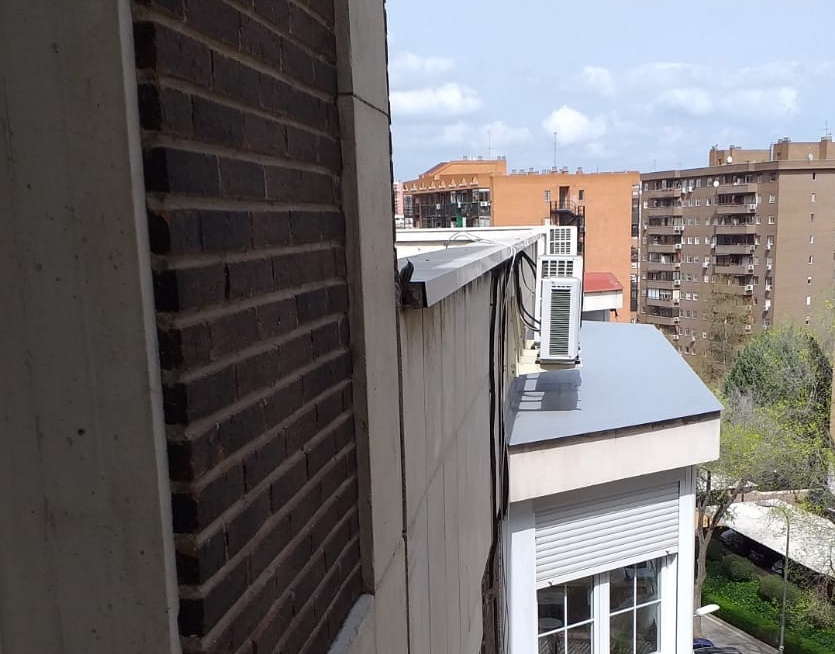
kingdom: Animalia
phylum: Chordata
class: Aves
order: Passeriformes
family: Certhiidae
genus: Certhia
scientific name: Certhia brachydactyla
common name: Short-toed treecreeper
